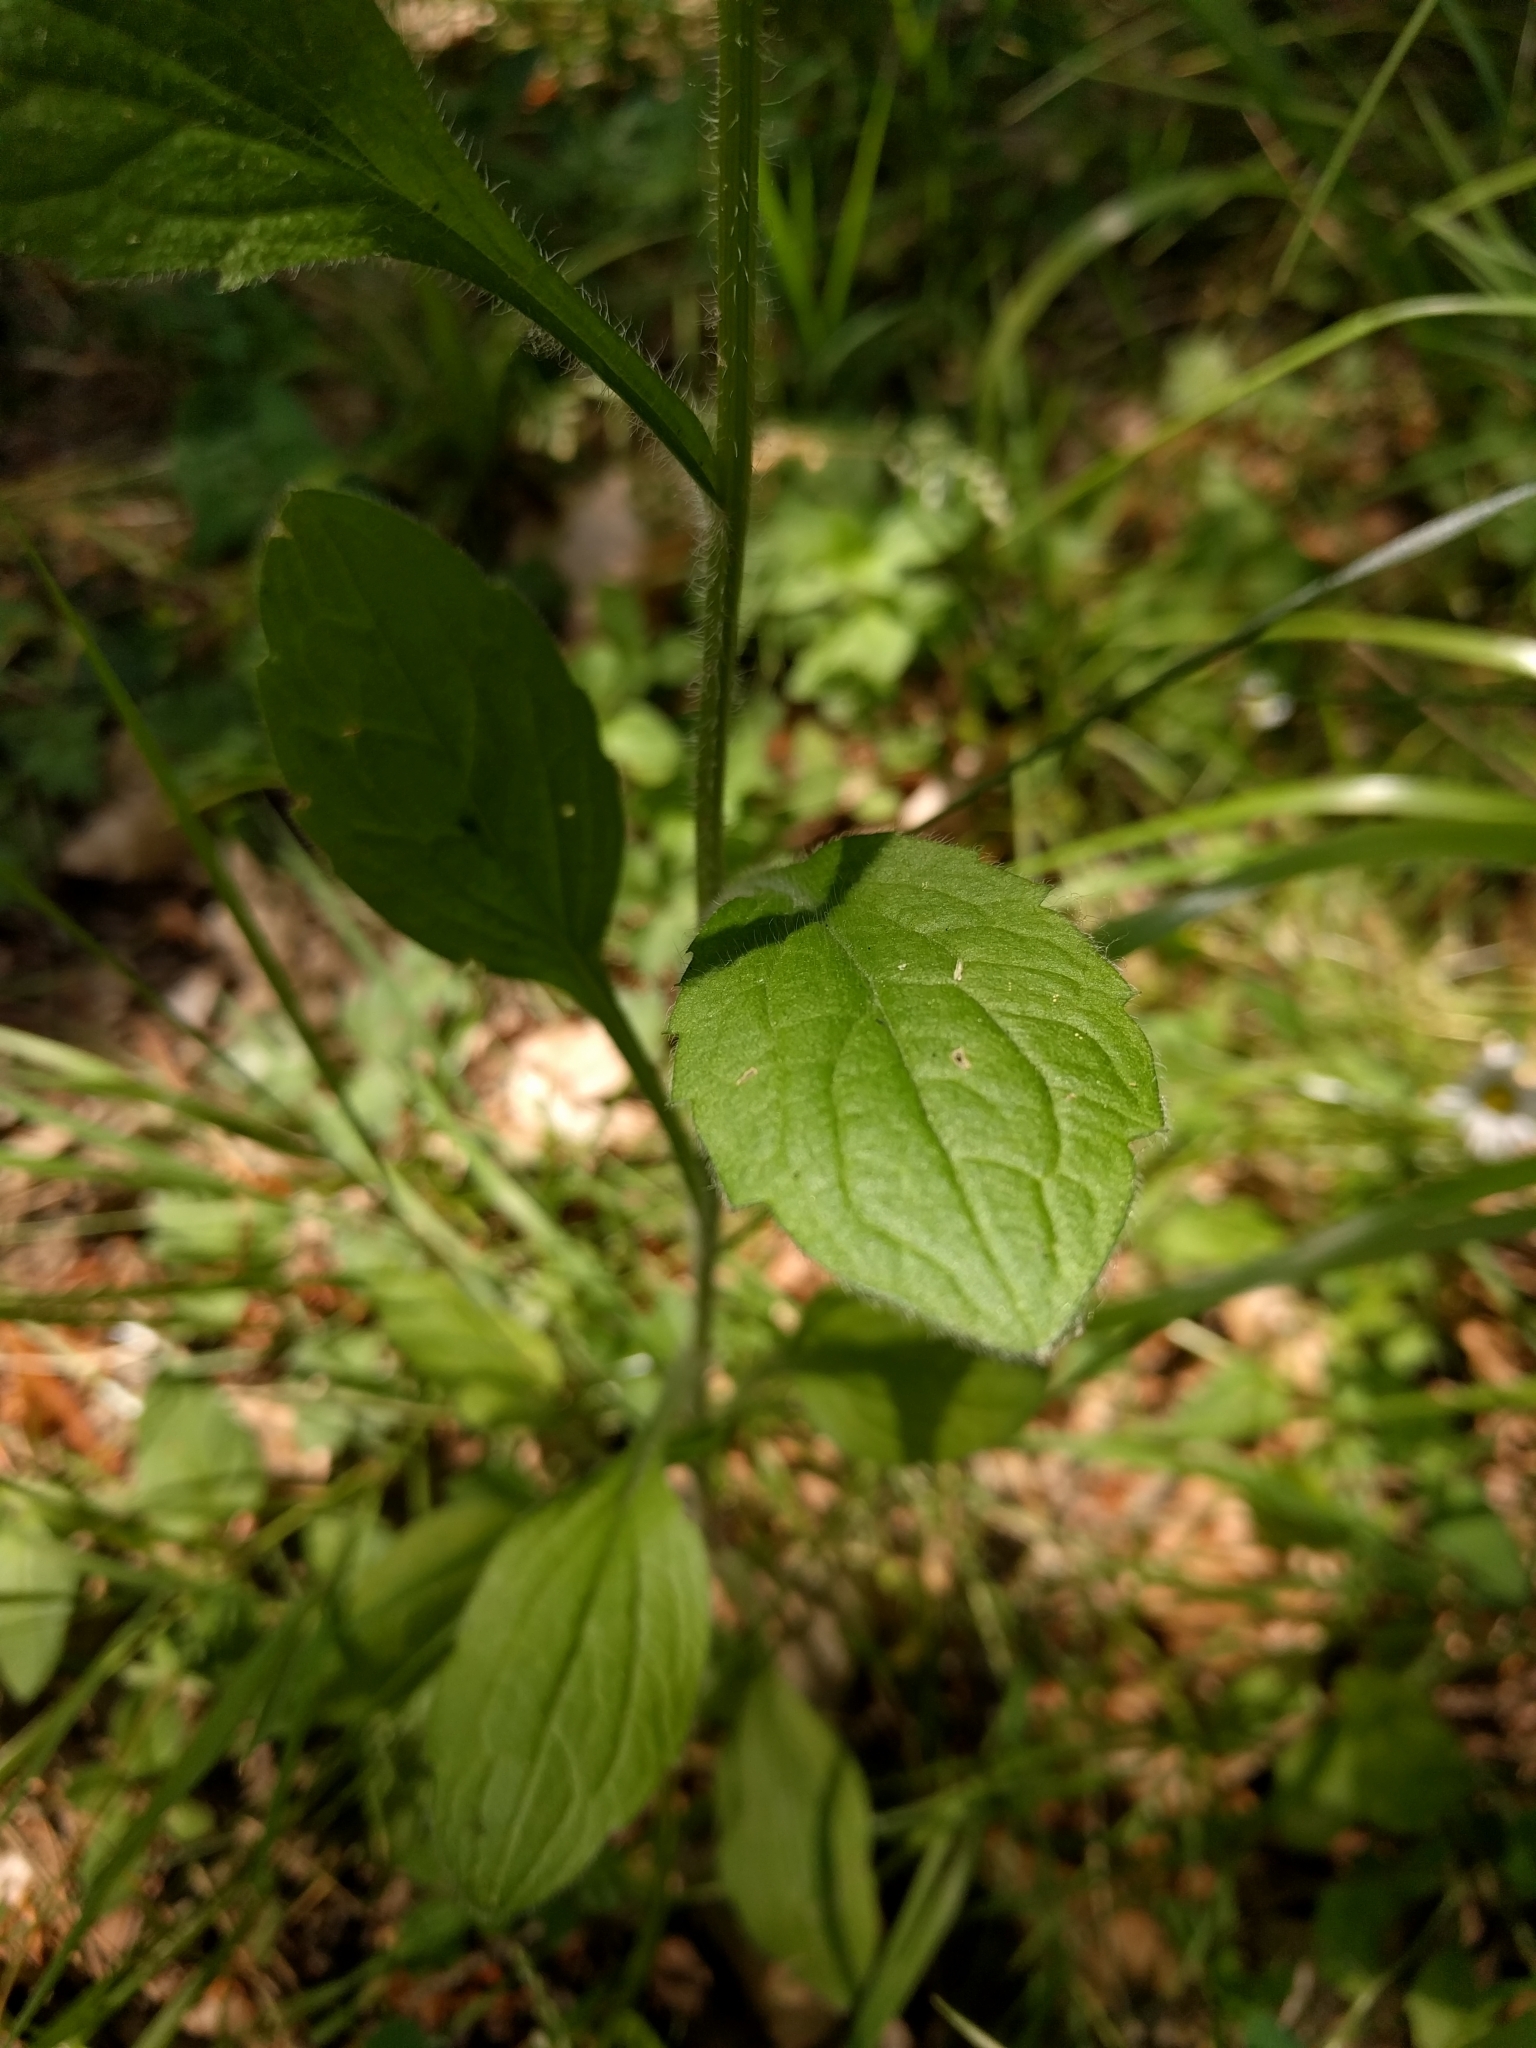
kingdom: Plantae
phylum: Tracheophyta
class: Magnoliopsida
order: Asterales
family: Asteraceae
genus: Erigeron
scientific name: Erigeron annuus
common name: Tall fleabane
